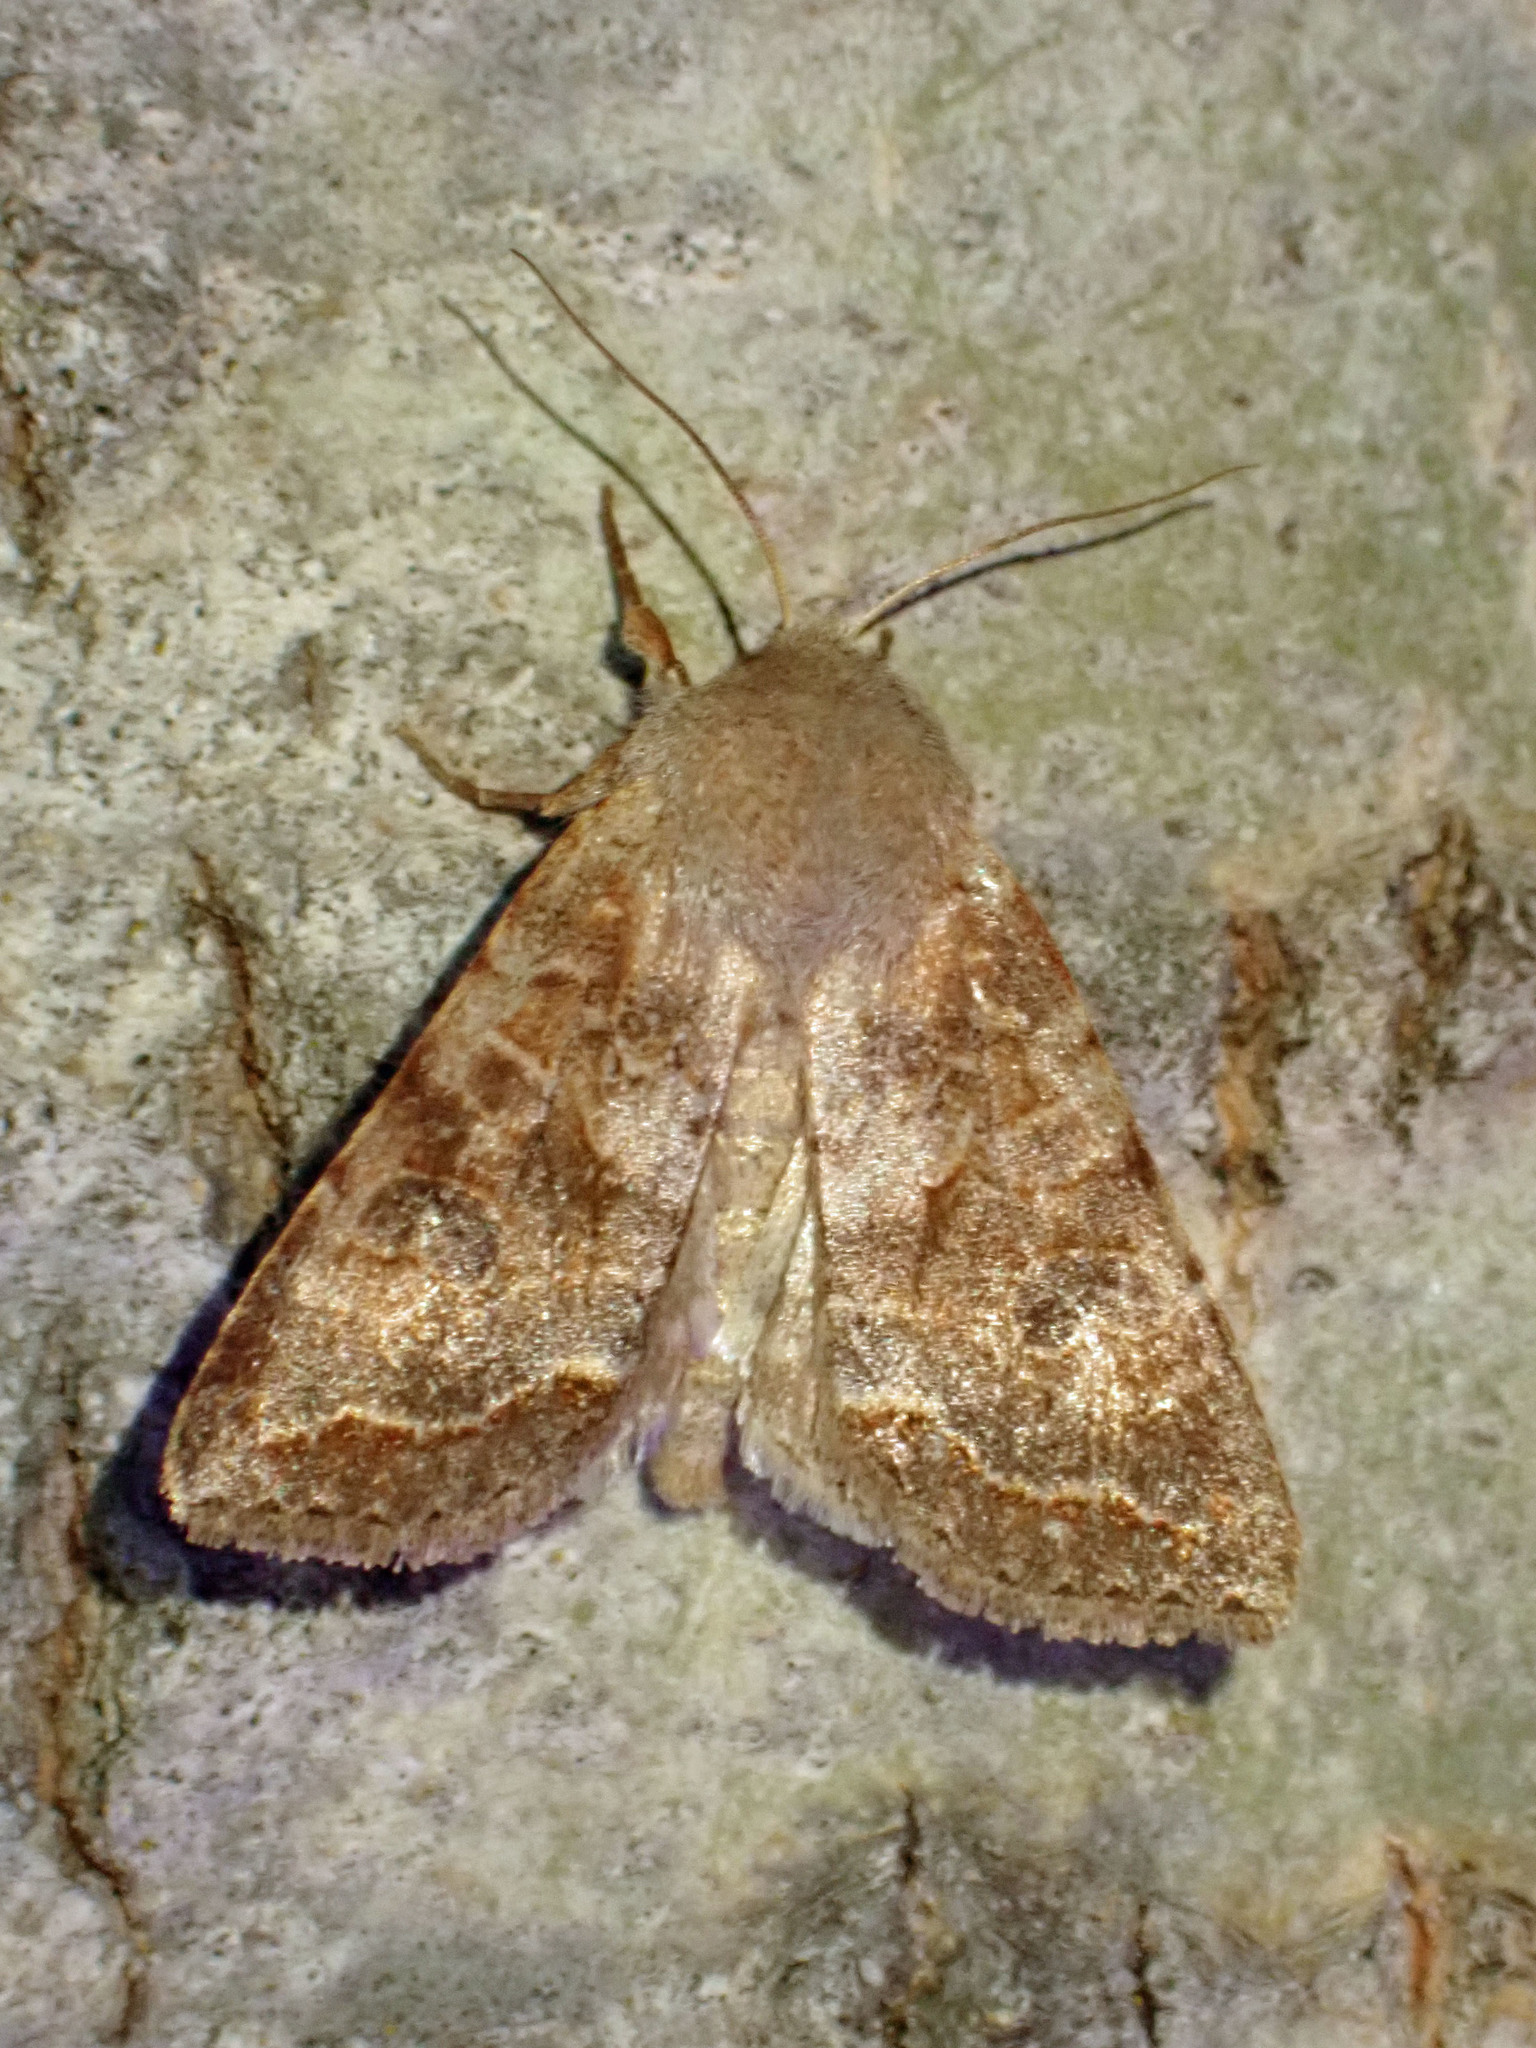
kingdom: Animalia
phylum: Arthropoda
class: Insecta
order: Lepidoptera
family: Noctuidae
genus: Orthosia
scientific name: Orthosia revicta
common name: Rusty whitesided caterpillar
